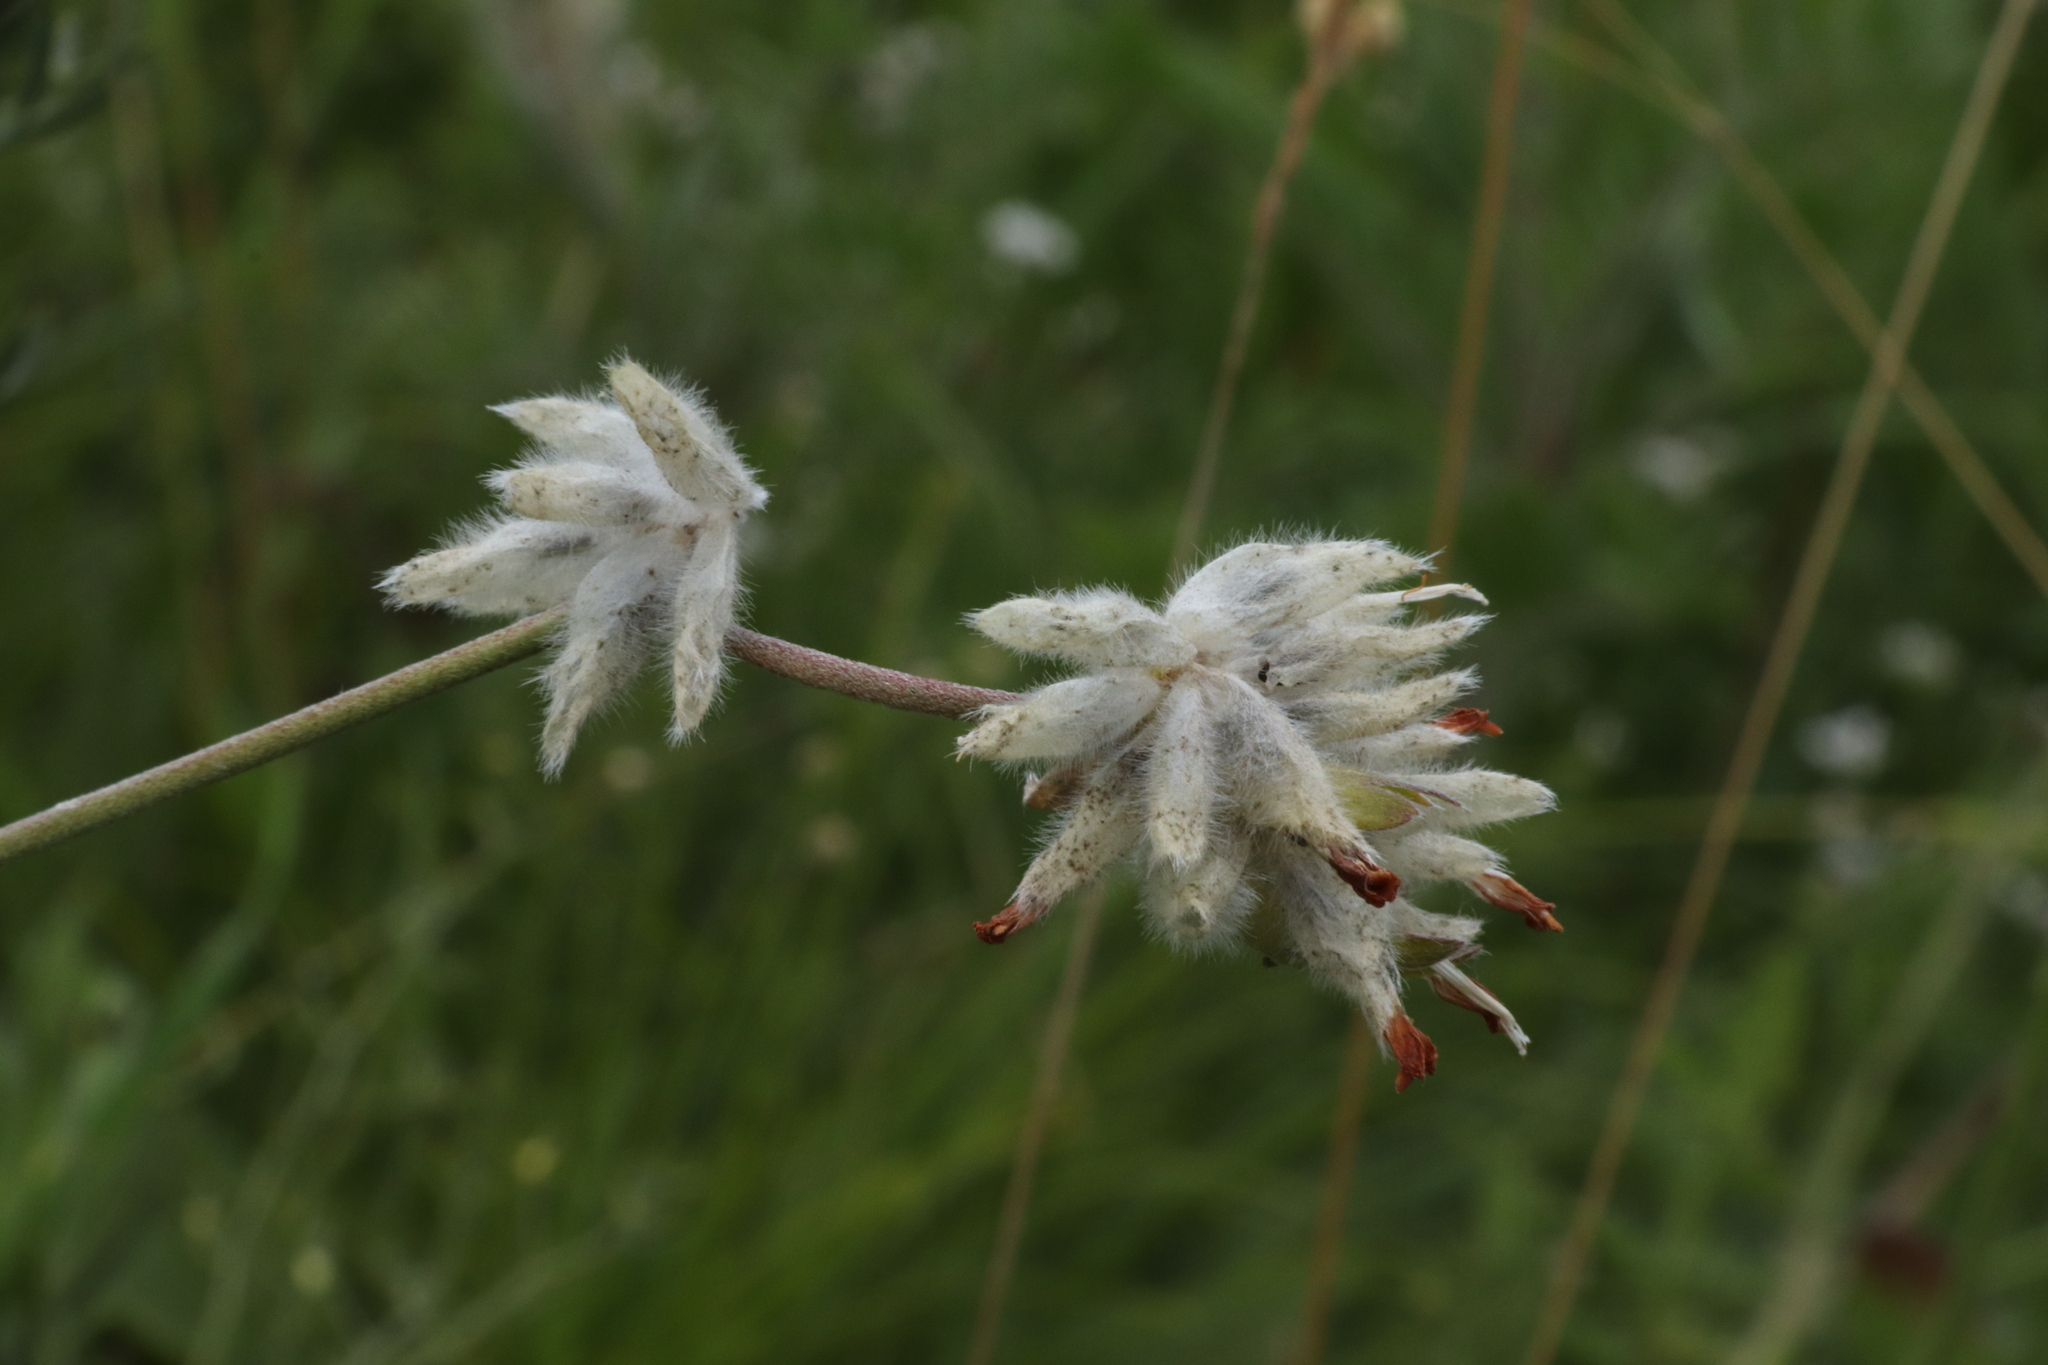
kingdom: Plantae
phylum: Tracheophyta
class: Magnoliopsida
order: Fabales
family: Fabaceae
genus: Anthyllis
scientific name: Anthyllis vulneraria
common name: Kidney vetch
